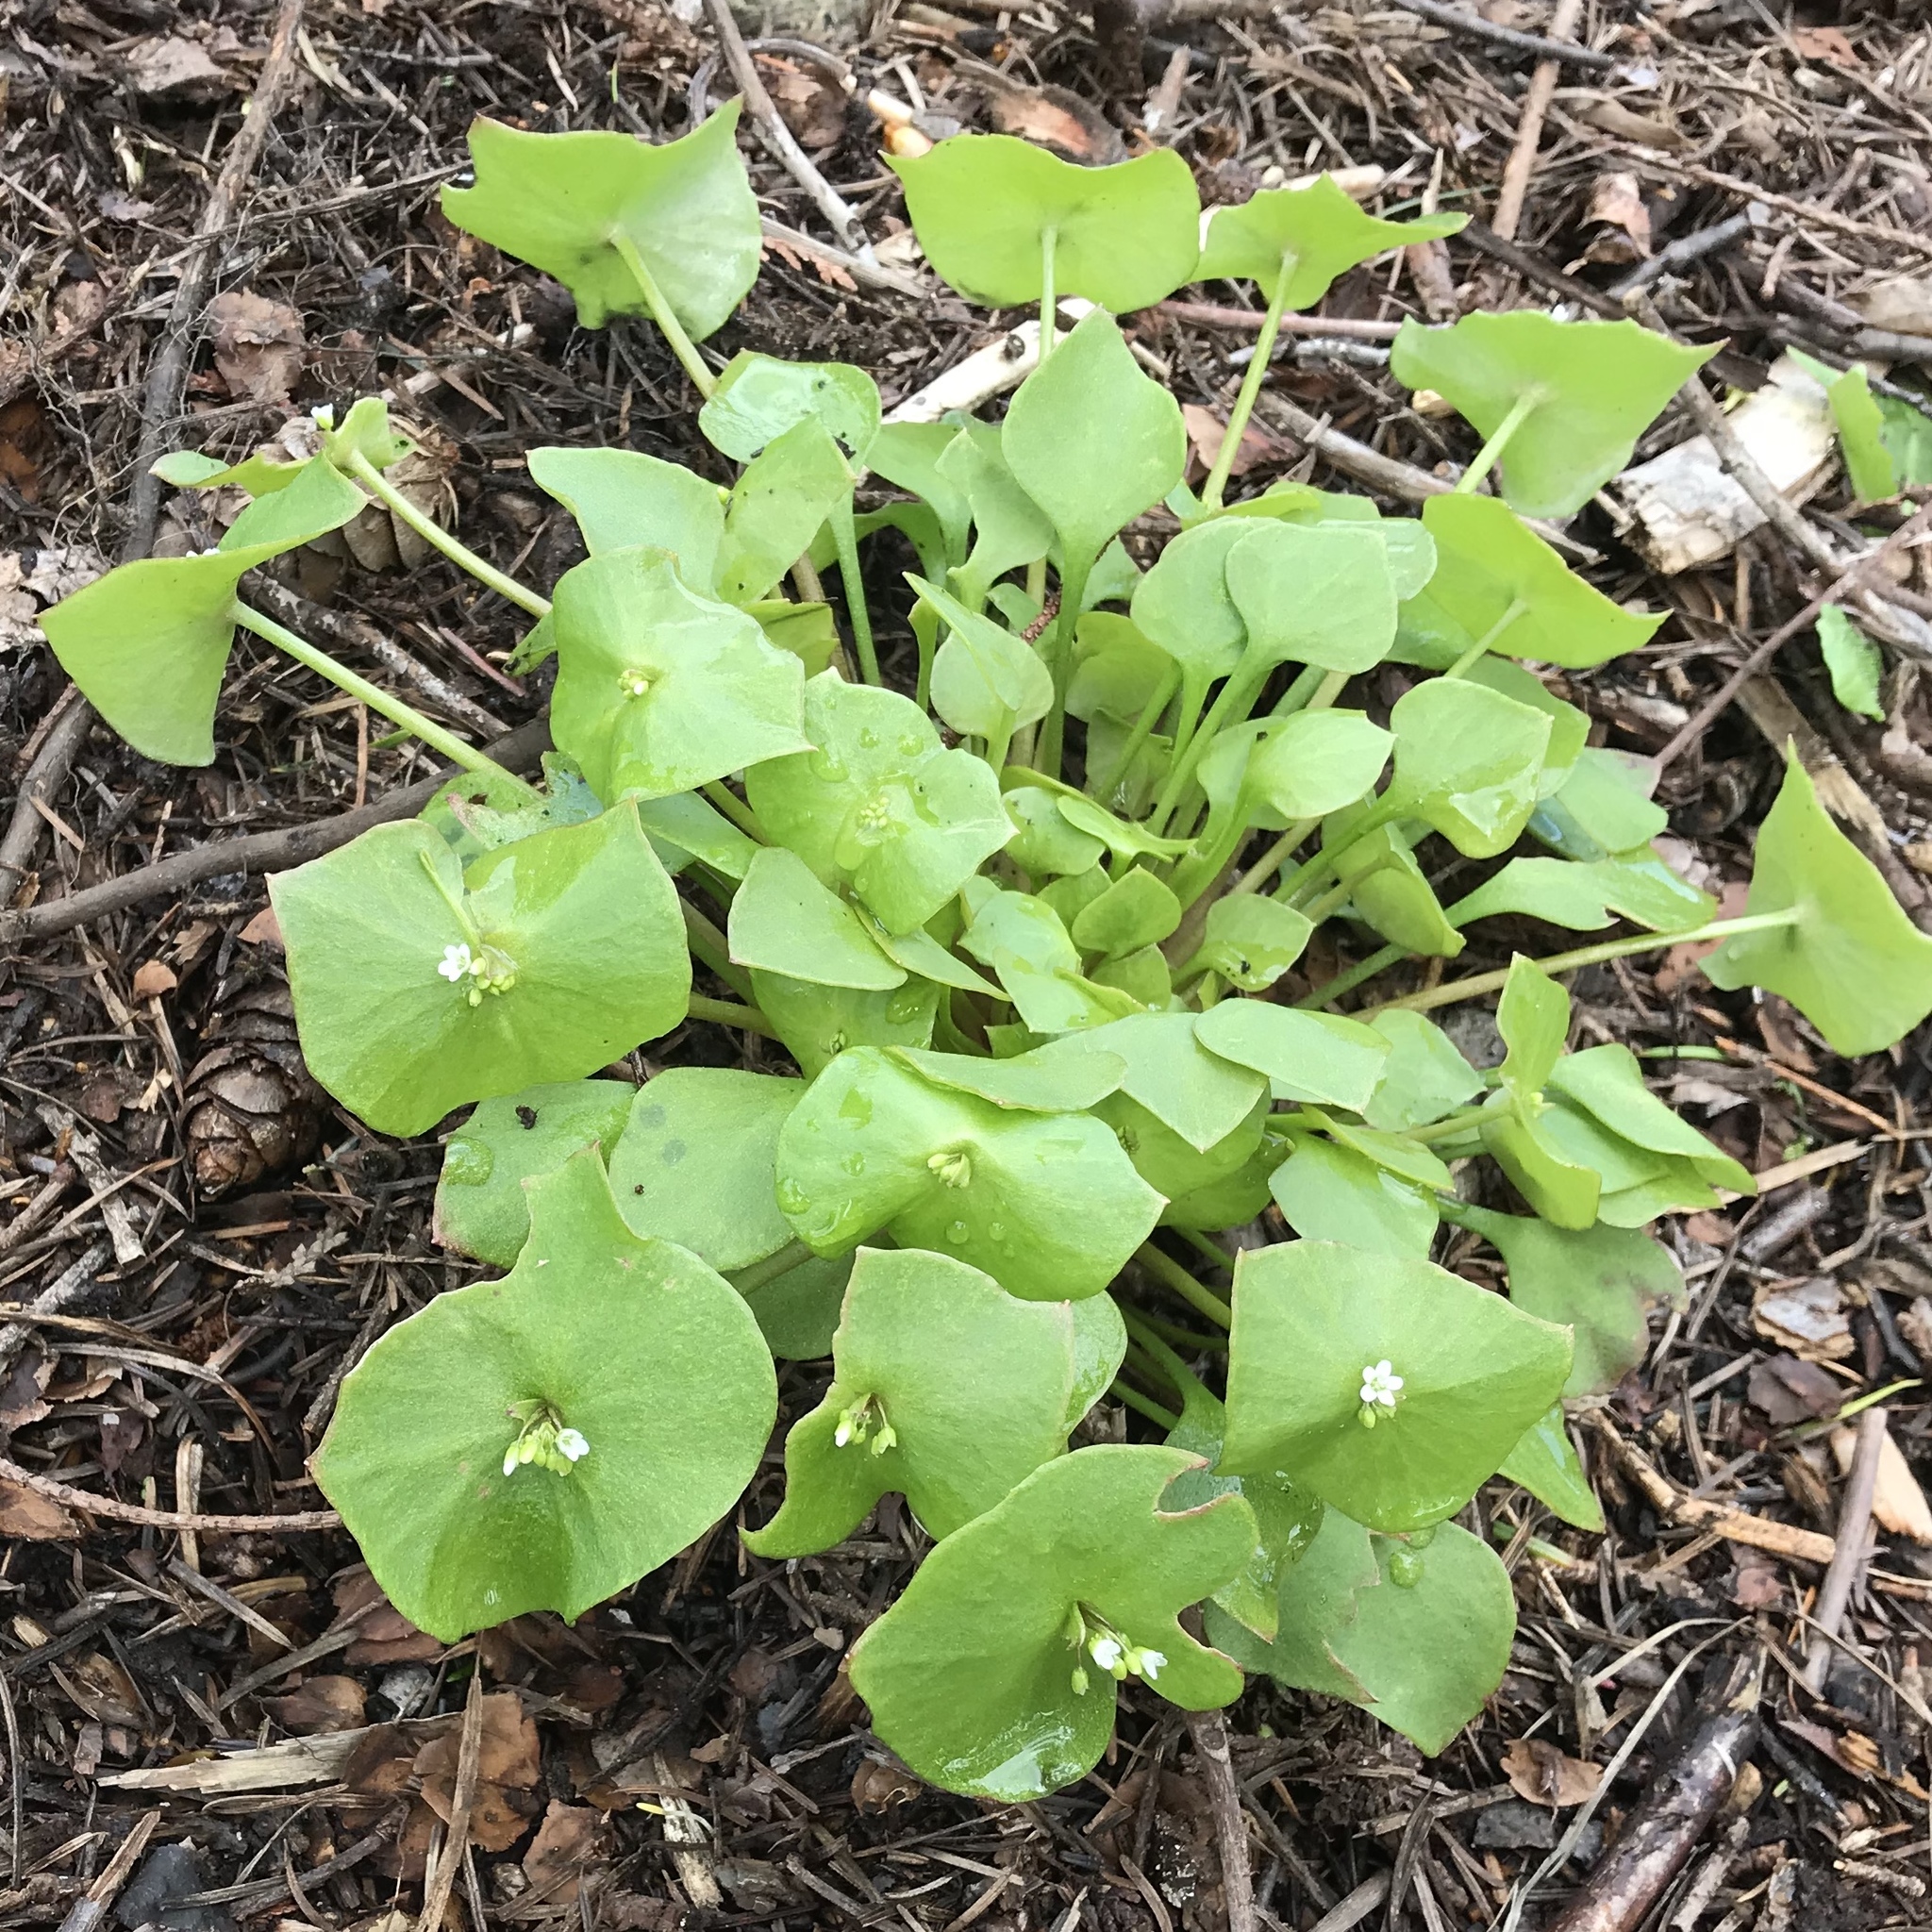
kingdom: Plantae
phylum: Tracheophyta
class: Magnoliopsida
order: Caryophyllales
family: Montiaceae
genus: Claytonia
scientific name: Claytonia perfoliata
